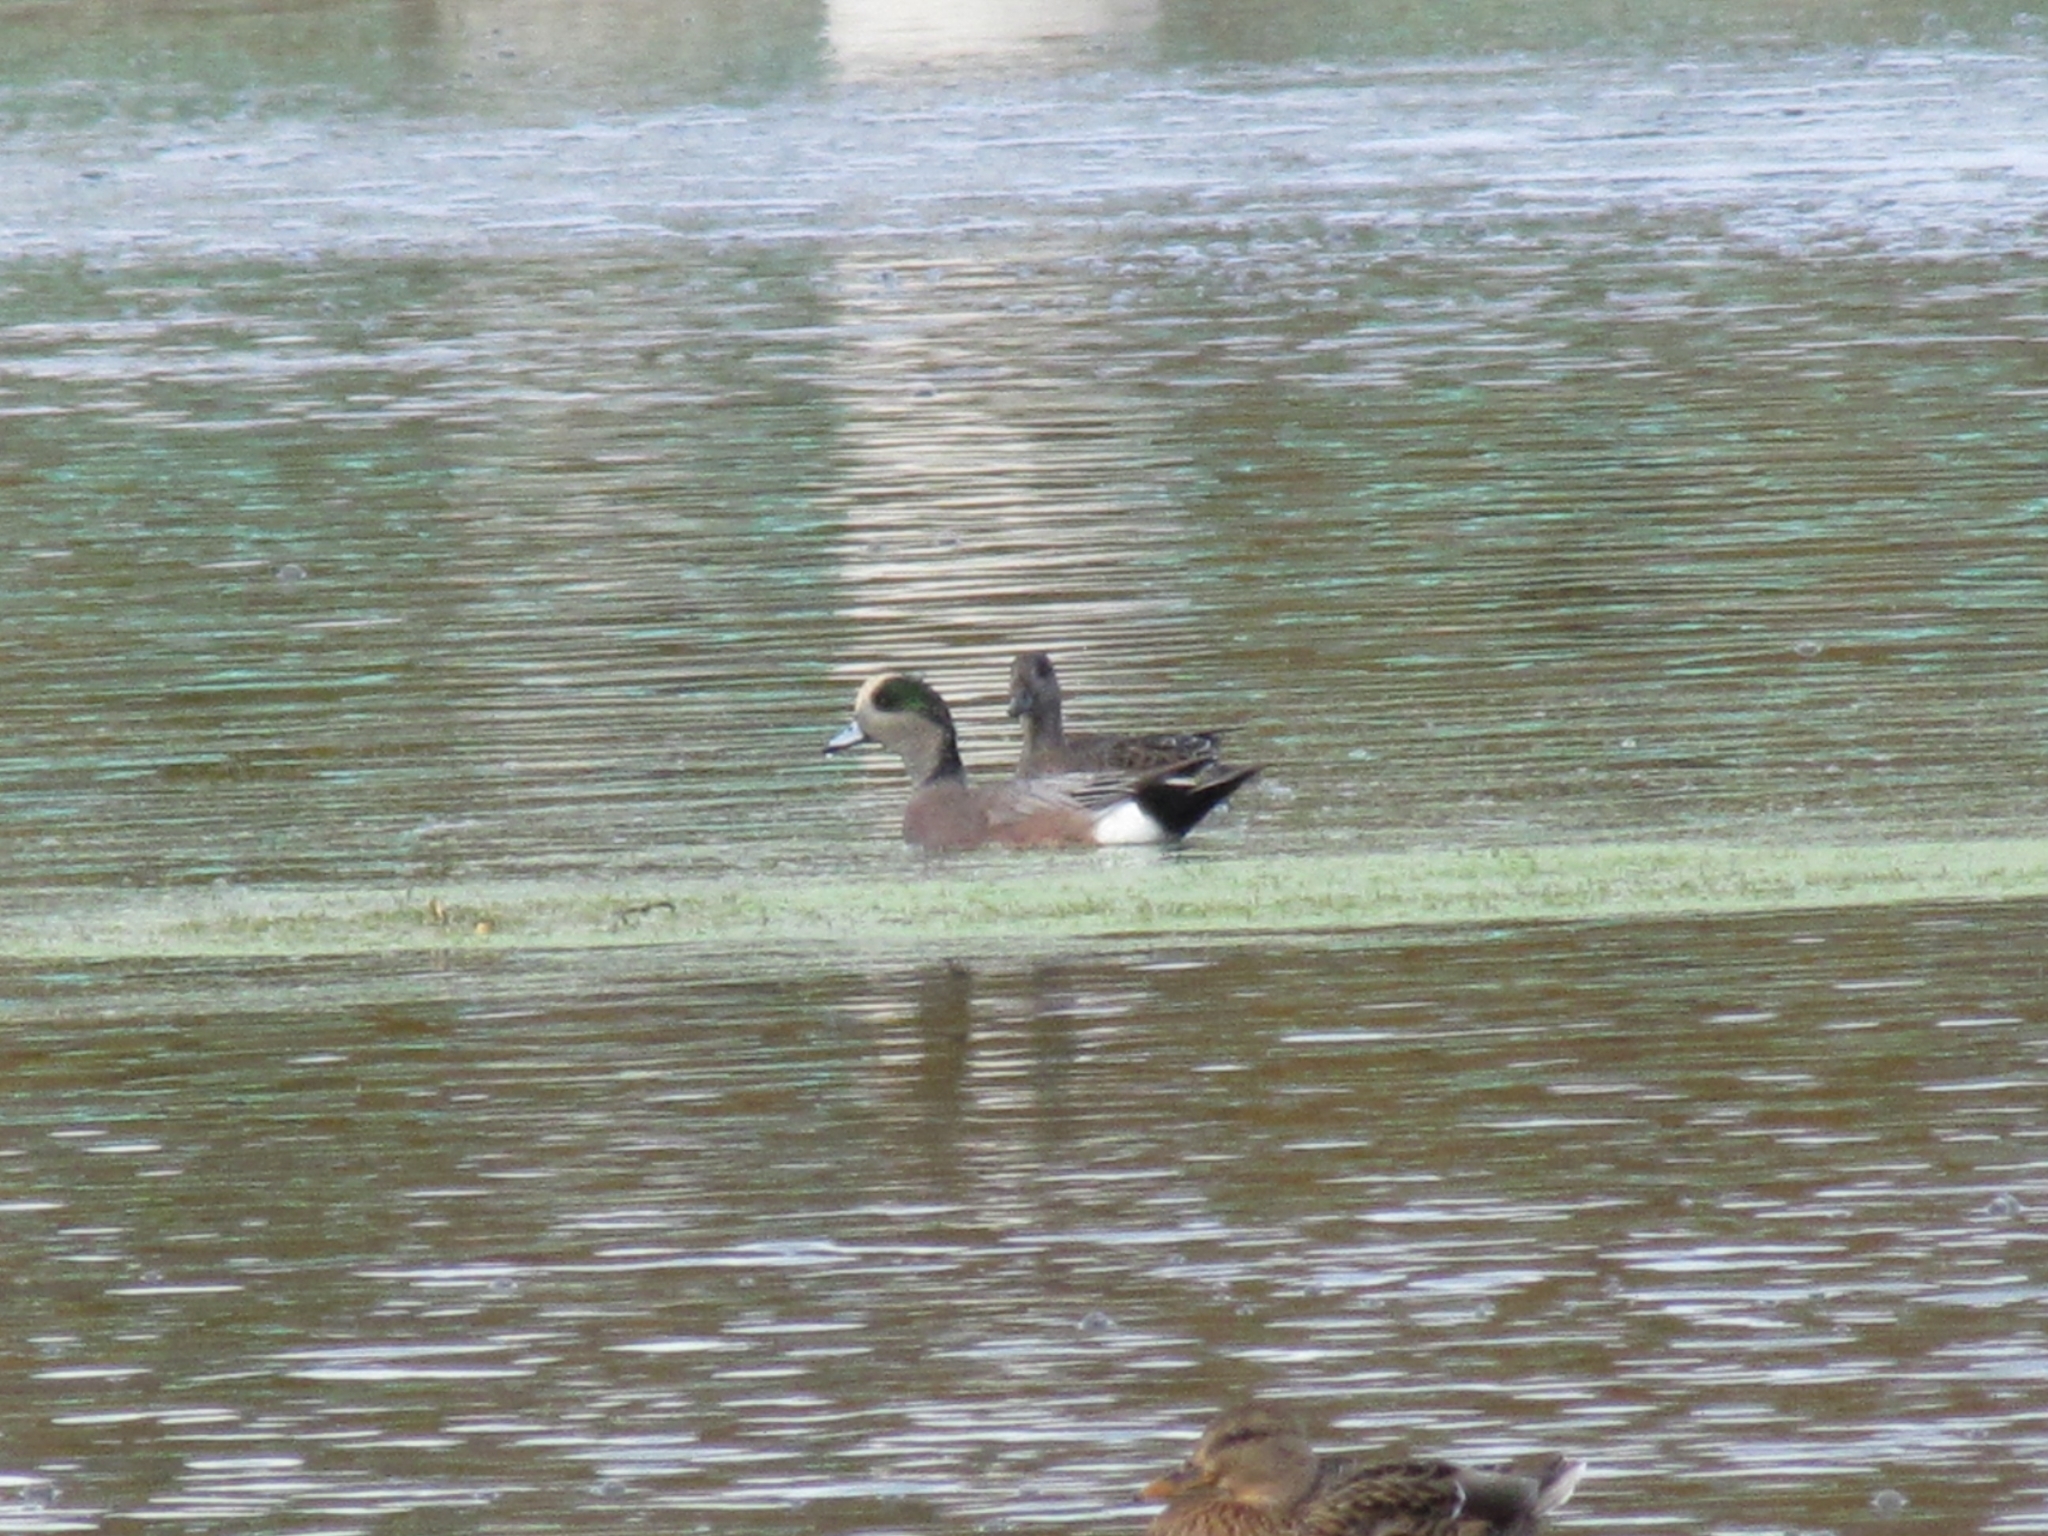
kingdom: Animalia
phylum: Chordata
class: Aves
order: Anseriformes
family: Anatidae
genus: Mareca
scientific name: Mareca americana
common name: American wigeon
